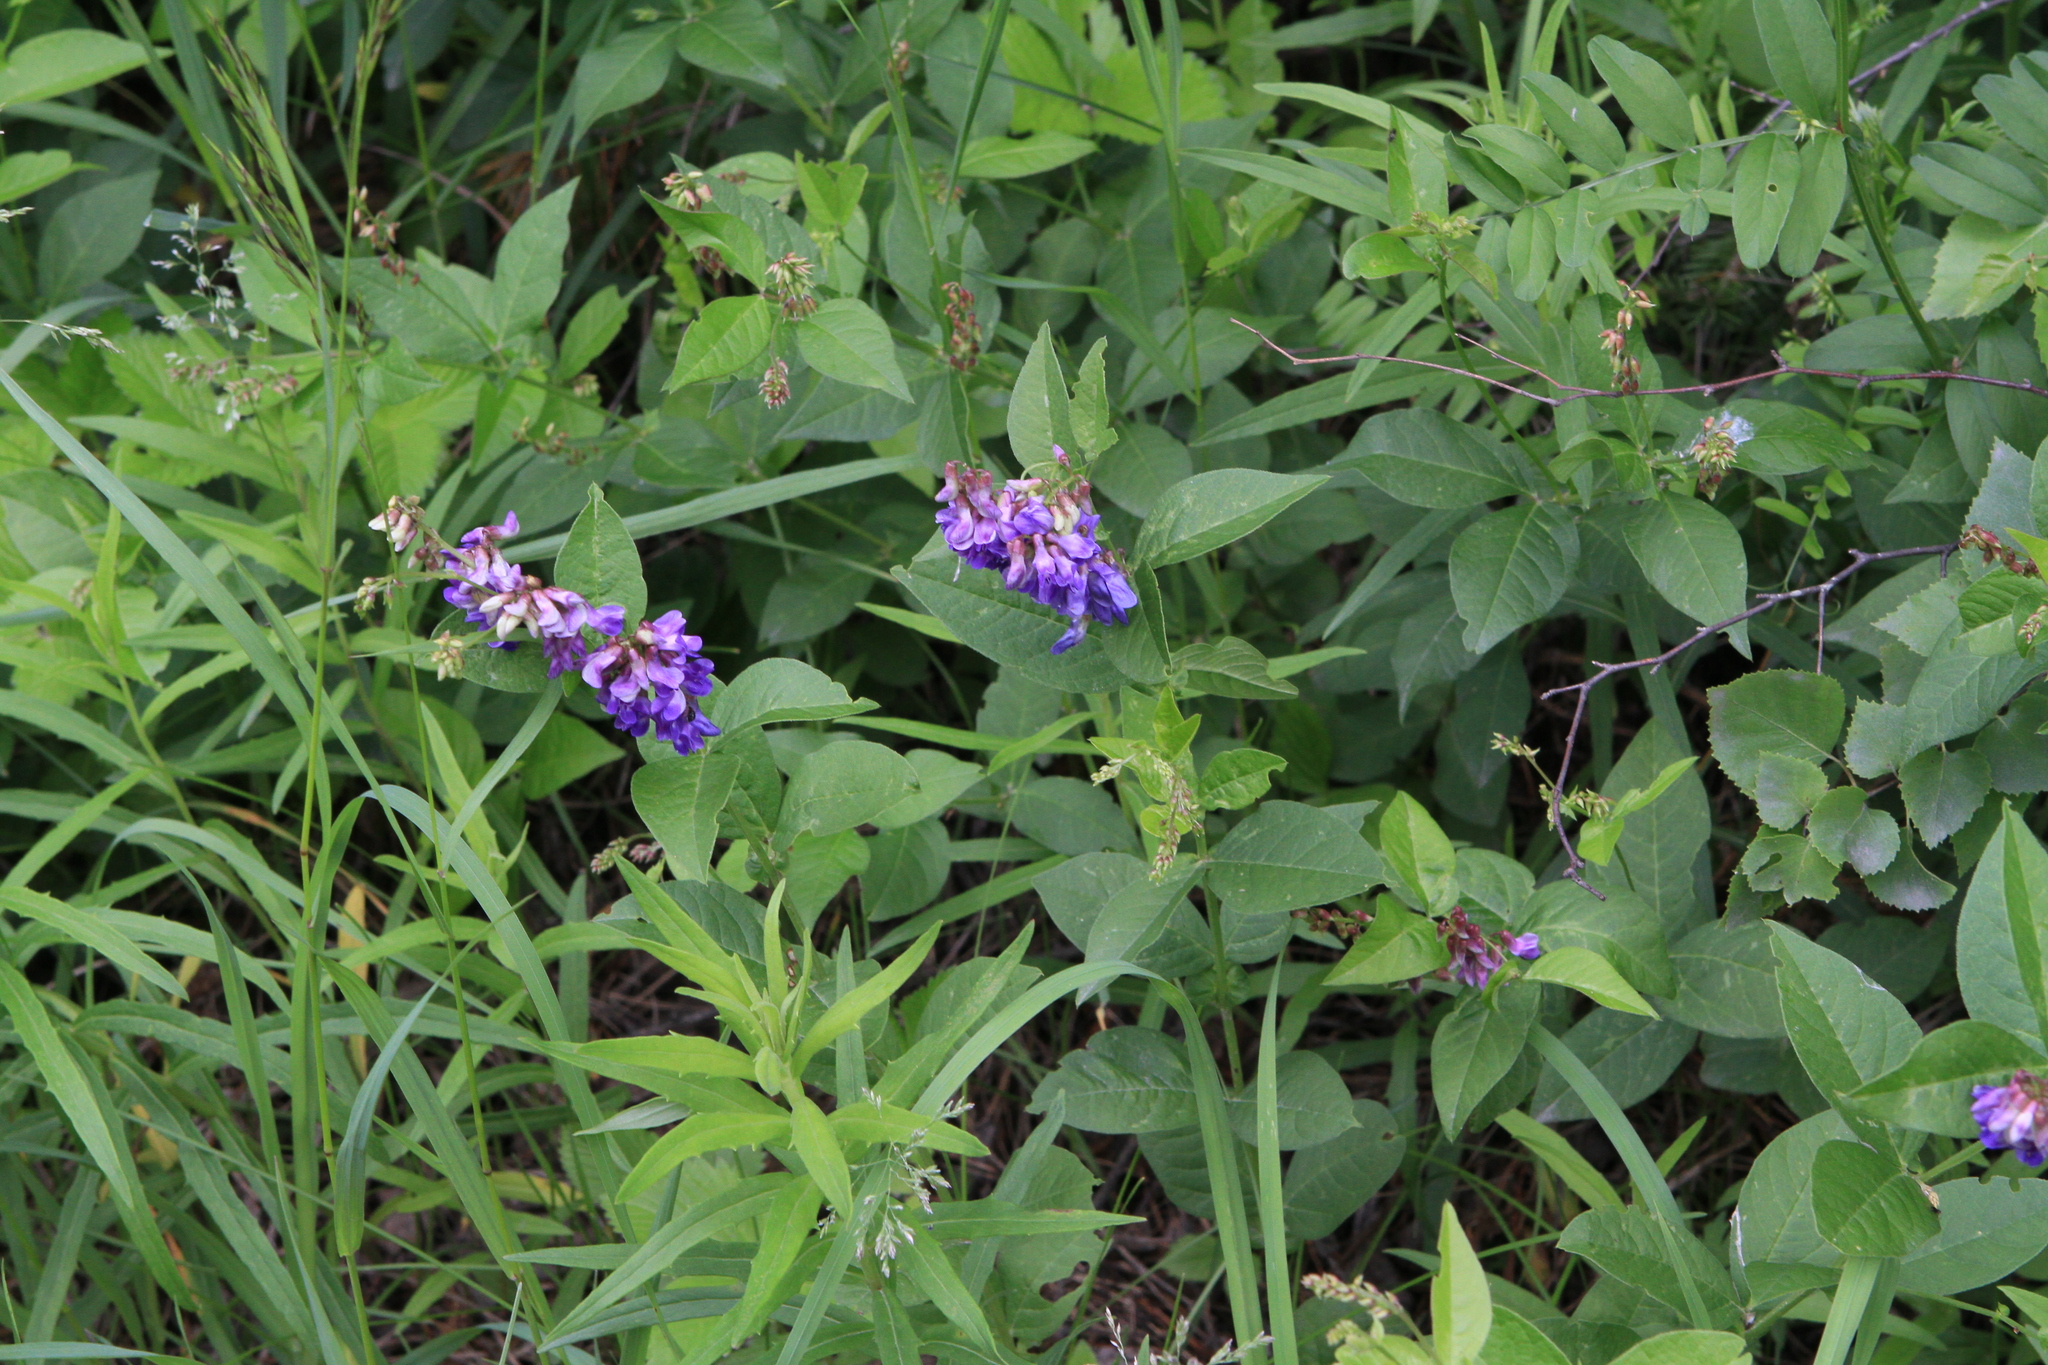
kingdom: Plantae
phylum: Tracheophyta
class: Magnoliopsida
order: Fabales
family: Fabaceae
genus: Vicia
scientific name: Vicia unijuga
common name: Two-leaf vetch
